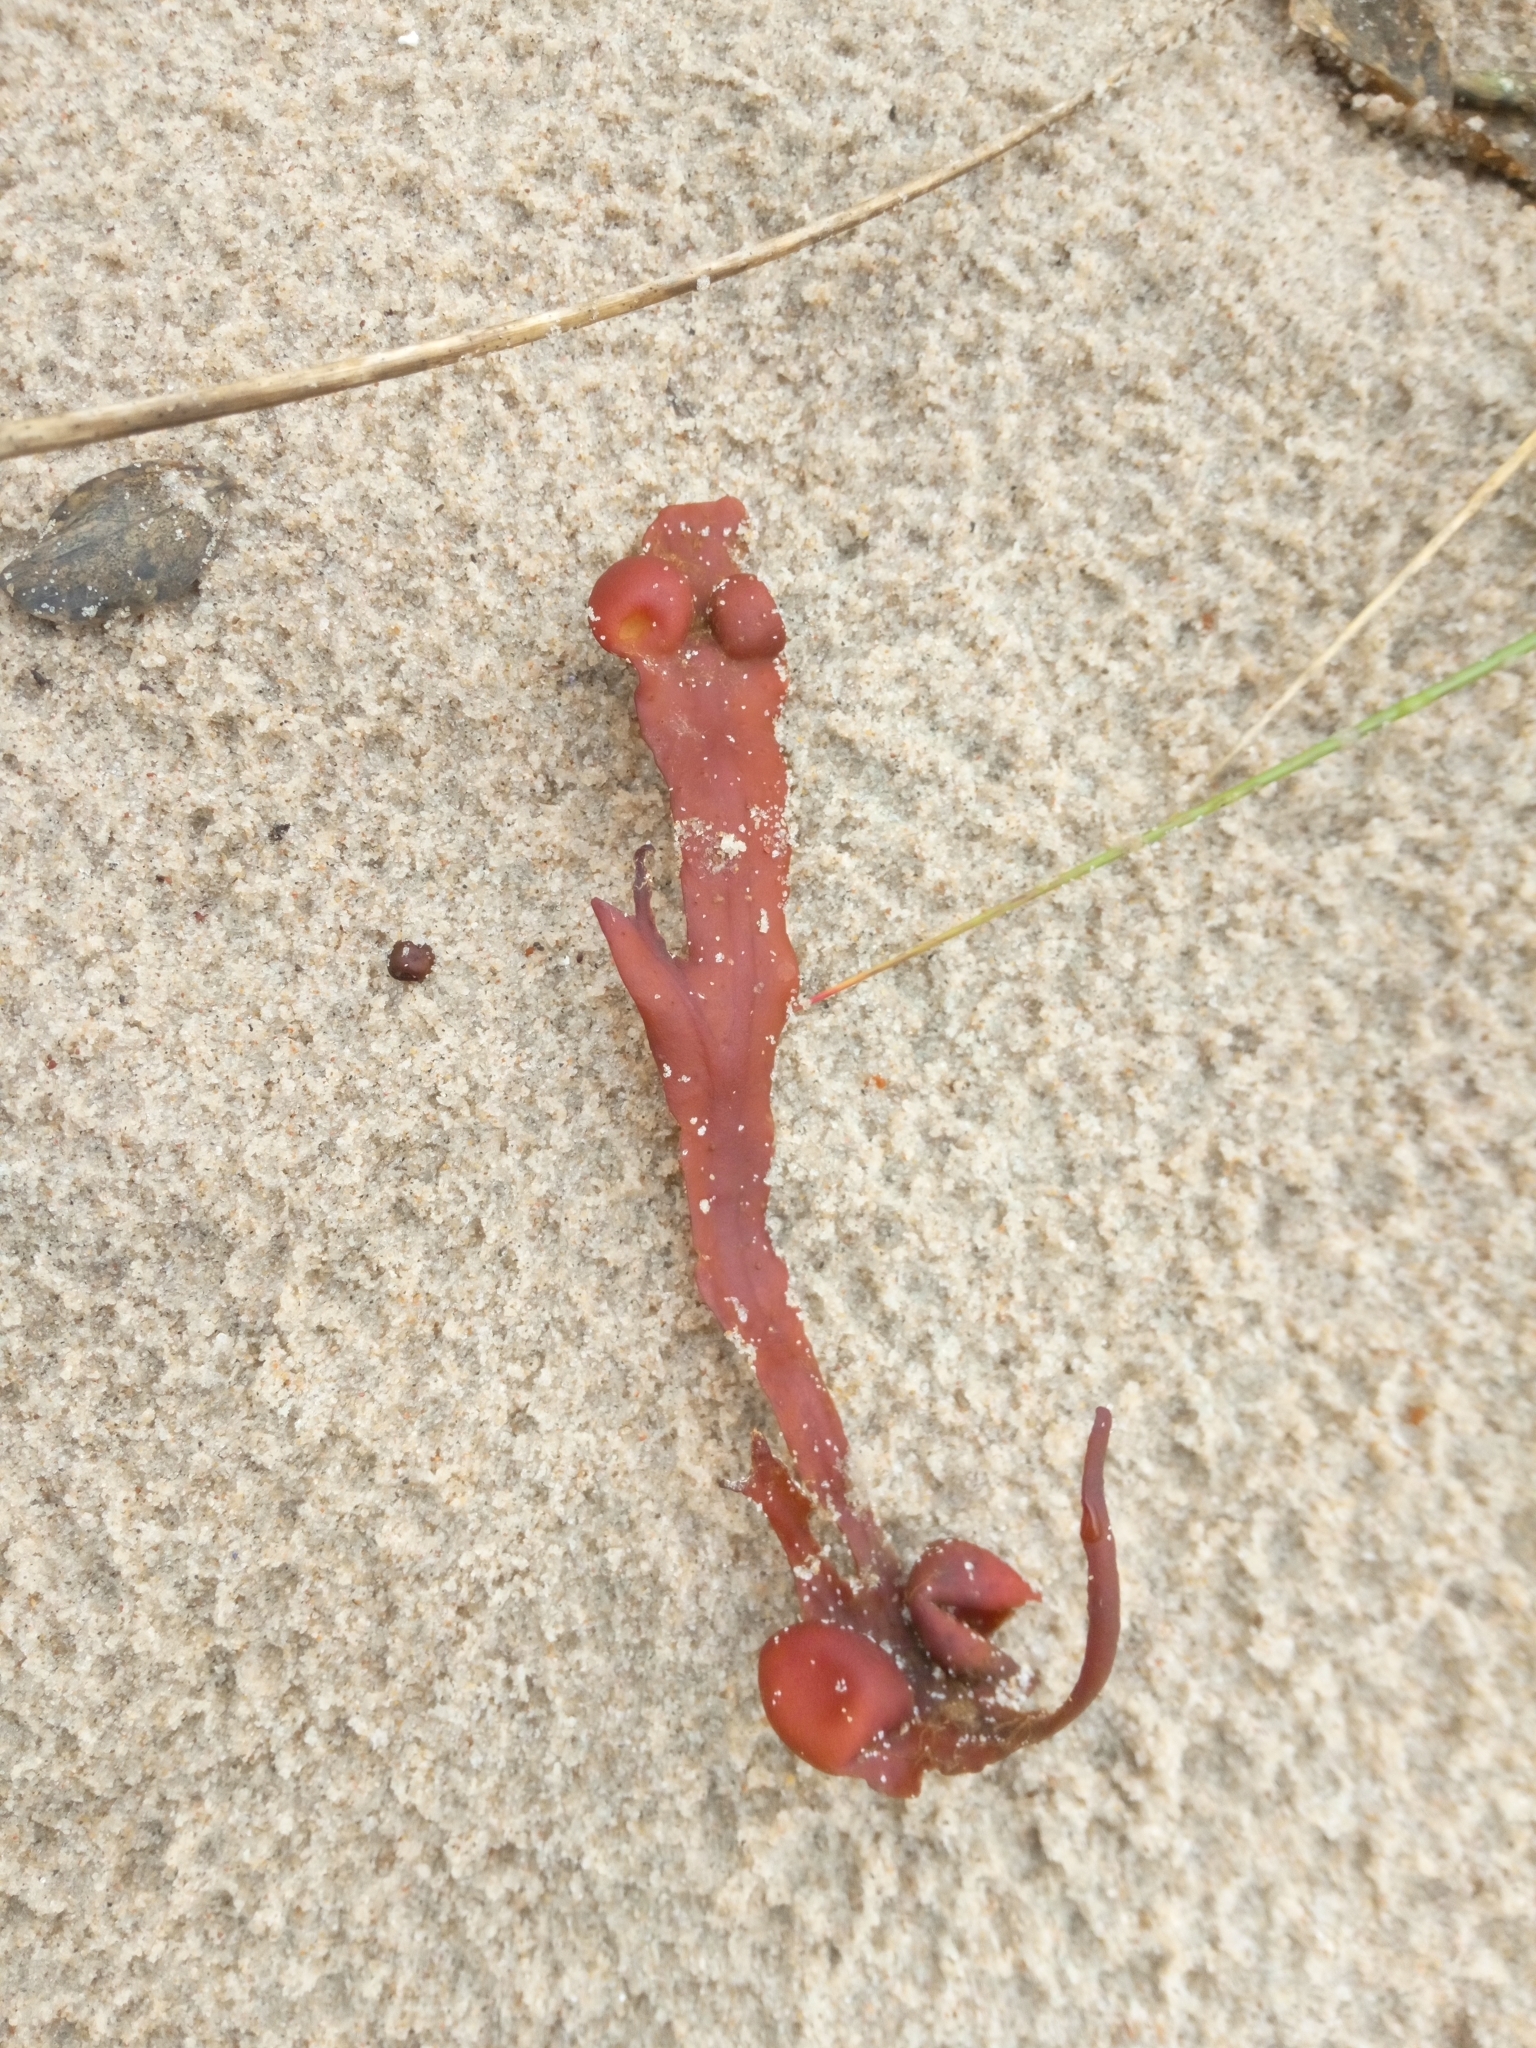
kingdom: Chromista
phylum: Ochrophyta
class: Phaeophyceae
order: Fucales
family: Fucaceae
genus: Fucus
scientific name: Fucus vesiculosus
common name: Bladder wrack
